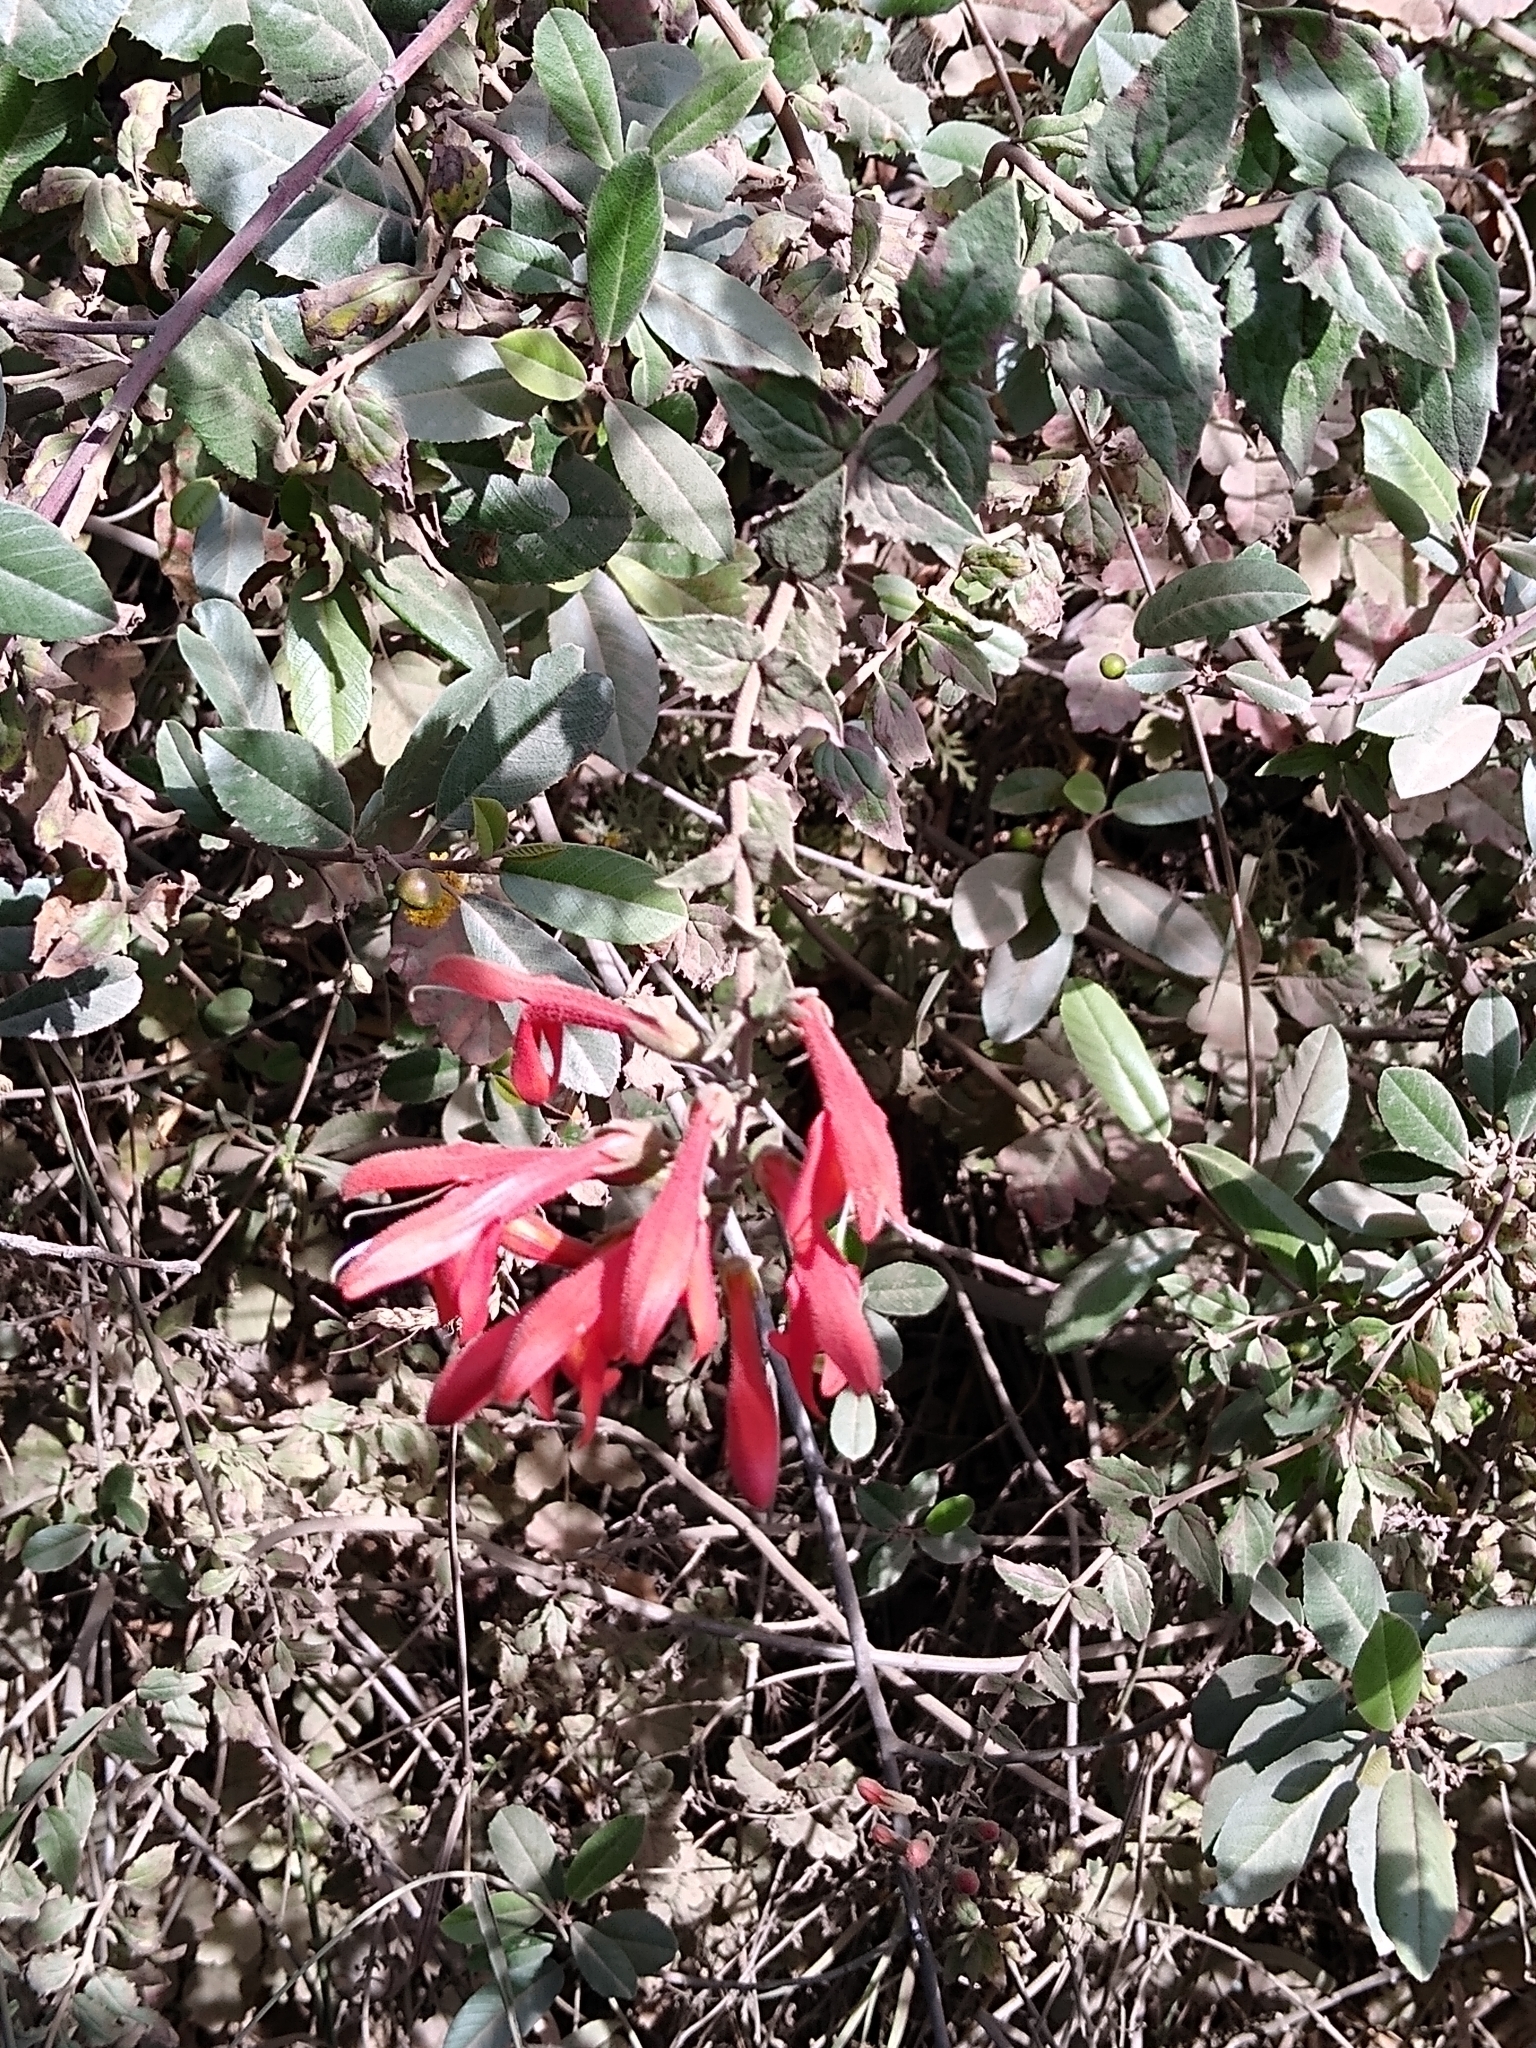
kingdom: Plantae
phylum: Tracheophyta
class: Magnoliopsida
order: Lamiales
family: Plantaginaceae
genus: Keckiella
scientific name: Keckiella cordifolia
